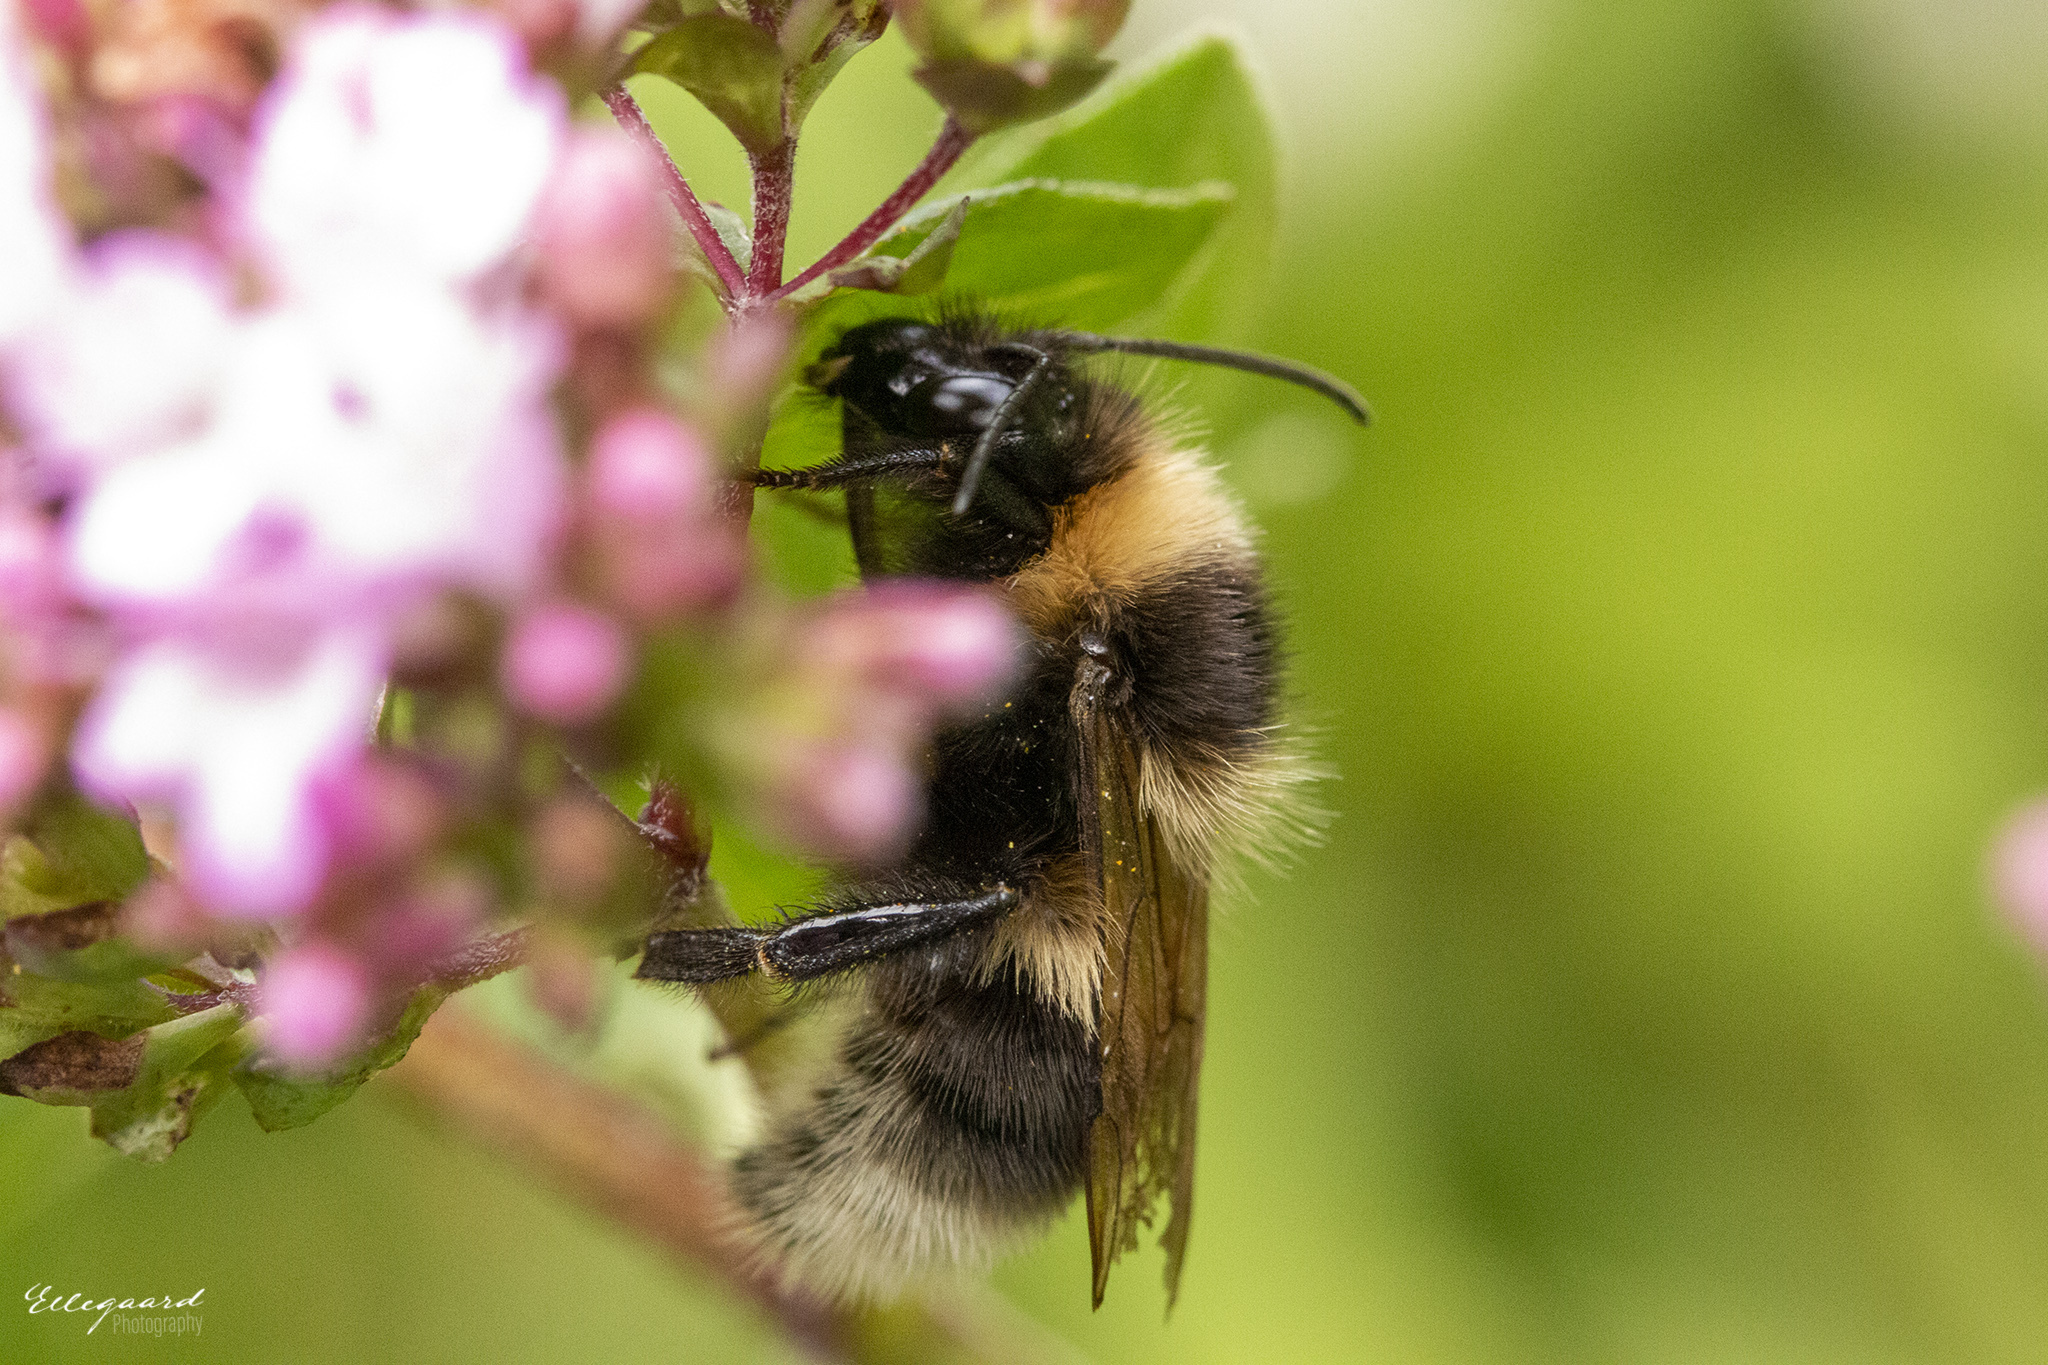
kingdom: Animalia
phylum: Arthropoda
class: Insecta
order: Hymenoptera
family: Apidae
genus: Bombus
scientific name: Bombus hortorum
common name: Garden bumblebee
